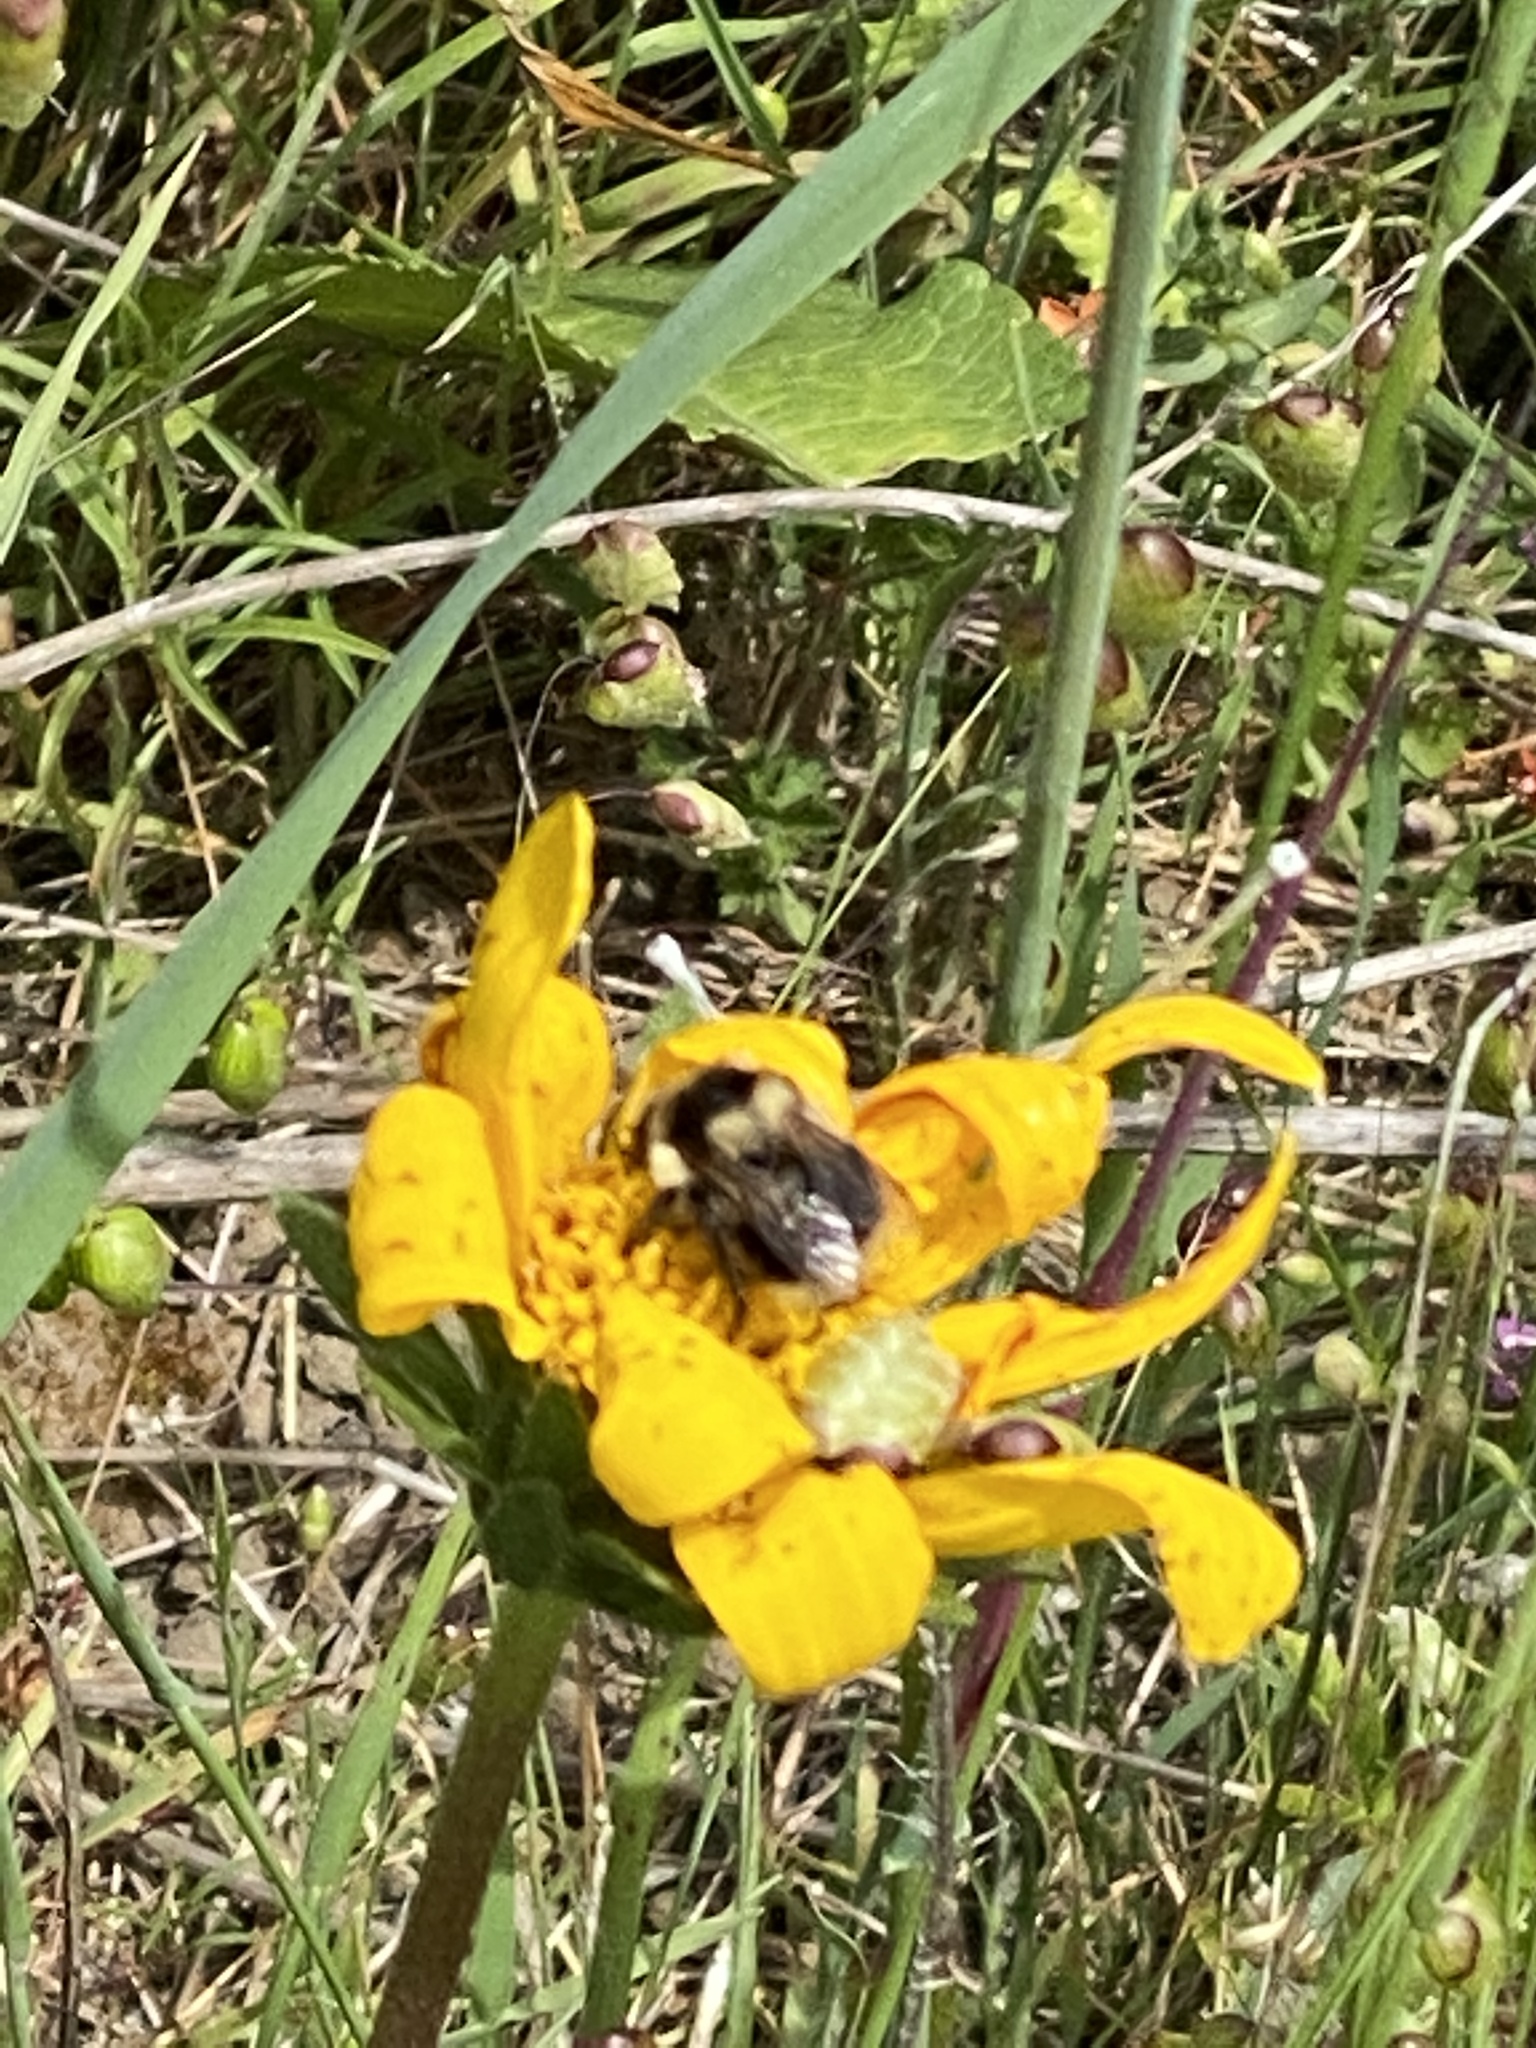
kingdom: Animalia
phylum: Arthropoda
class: Insecta
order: Hymenoptera
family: Apidae
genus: Bombus
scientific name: Bombus melanopygus
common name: Black tail bumble bee
